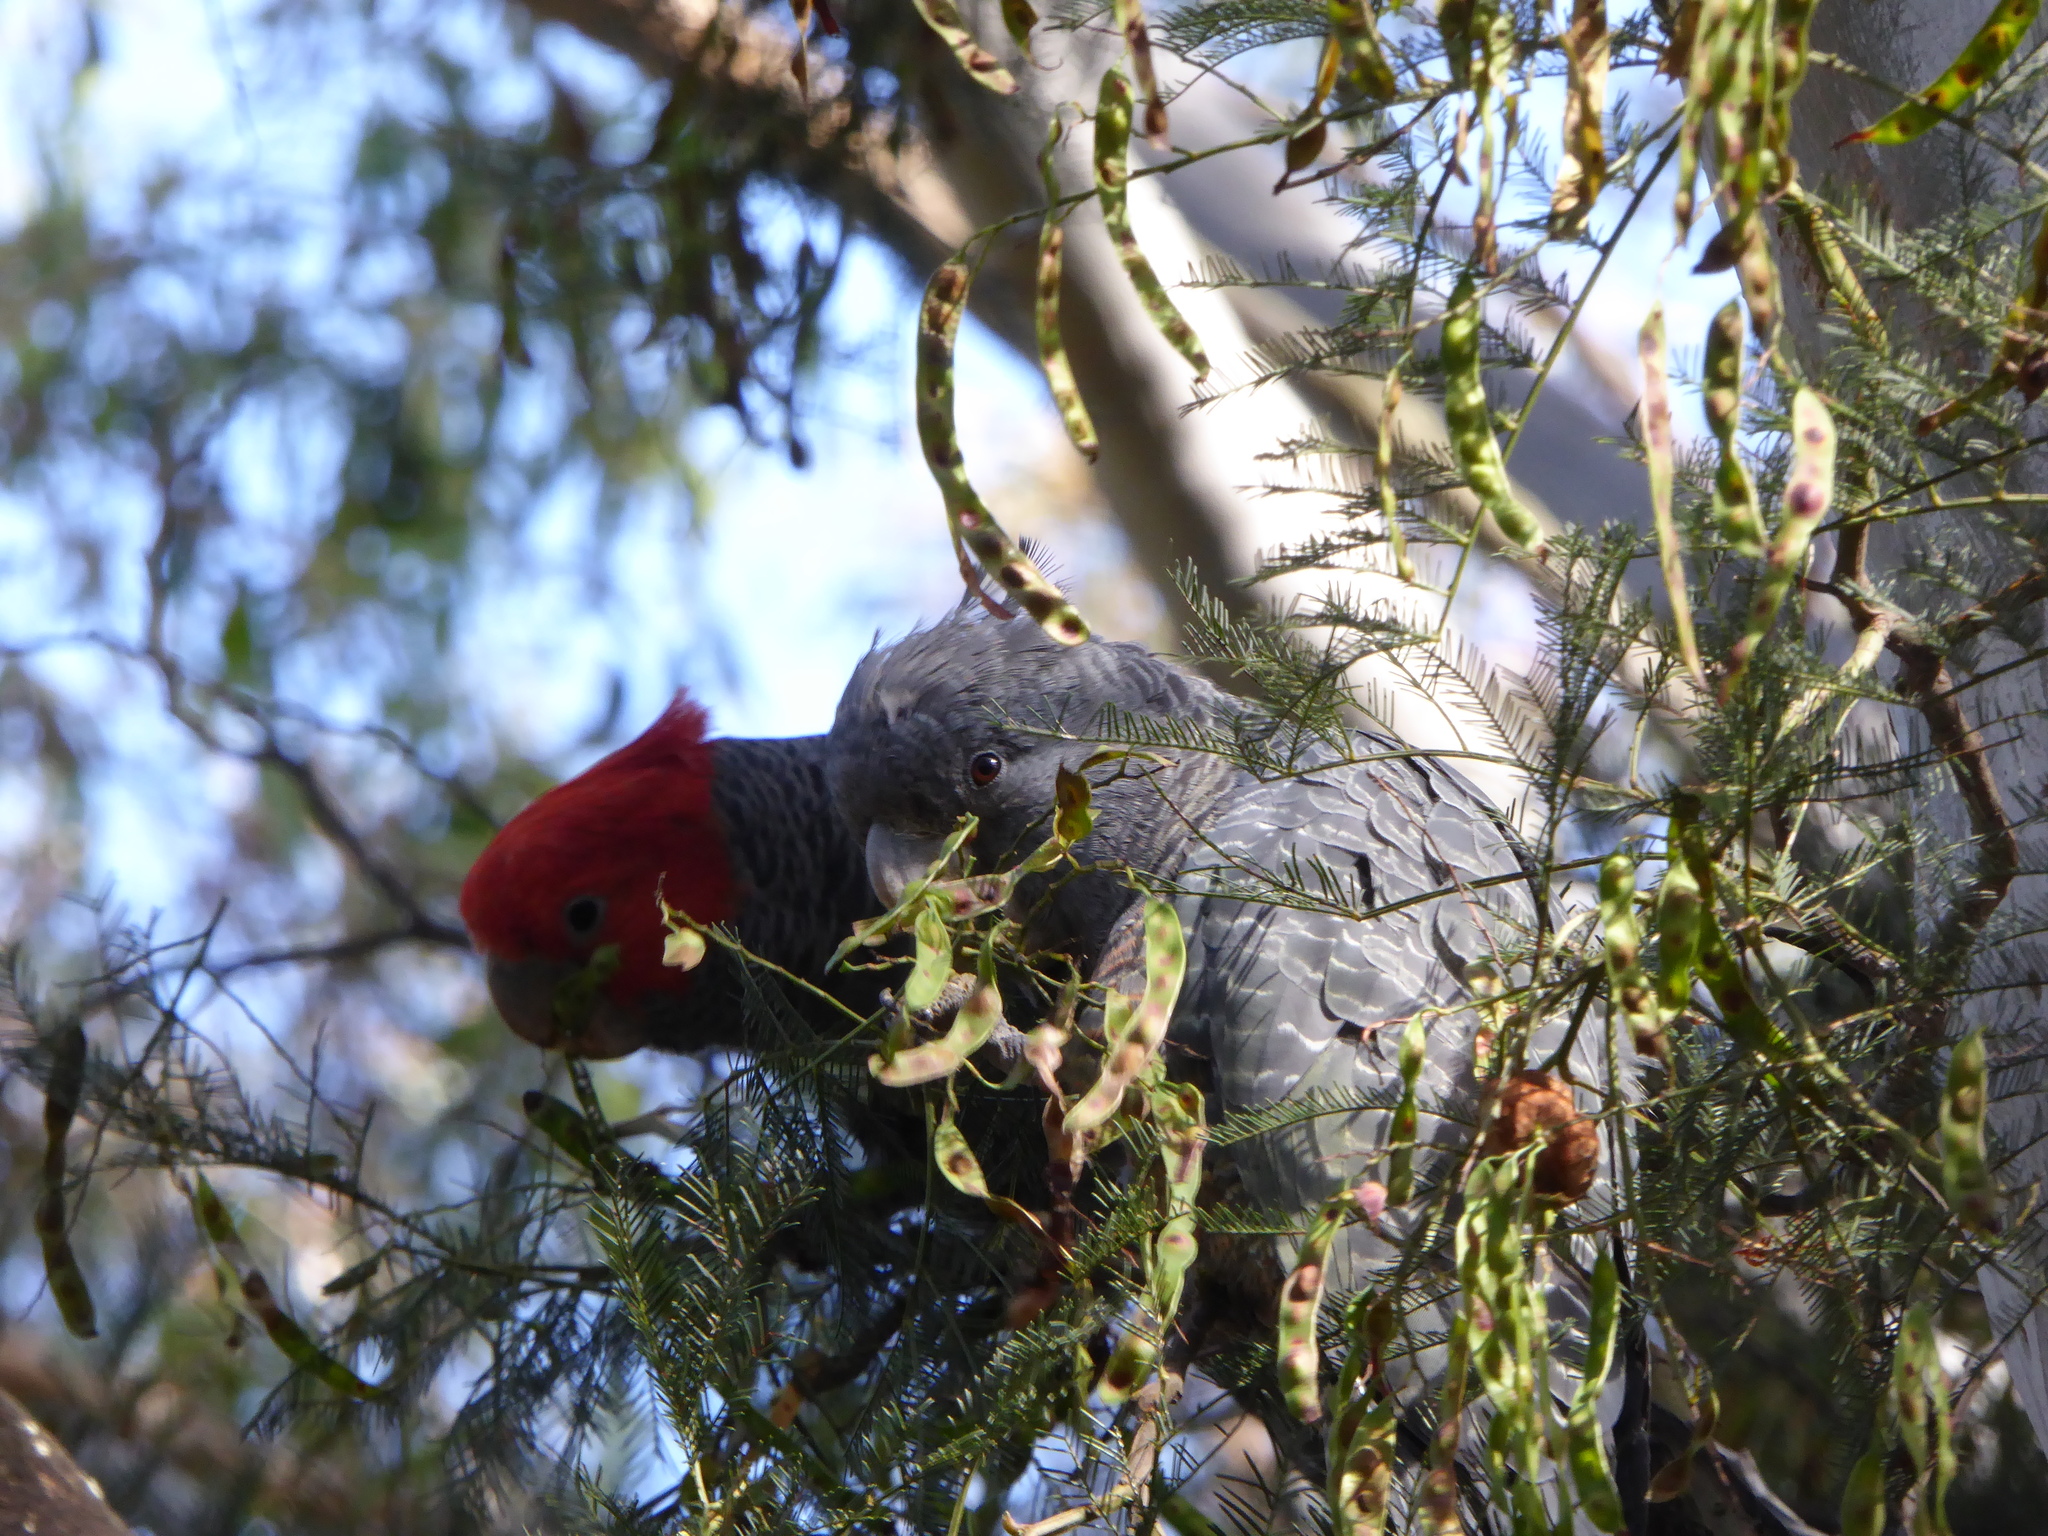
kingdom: Animalia
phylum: Chordata
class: Aves
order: Psittaciformes
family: Psittacidae
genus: Callocephalon
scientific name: Callocephalon fimbriatum
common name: Gang-gang cockatoo
